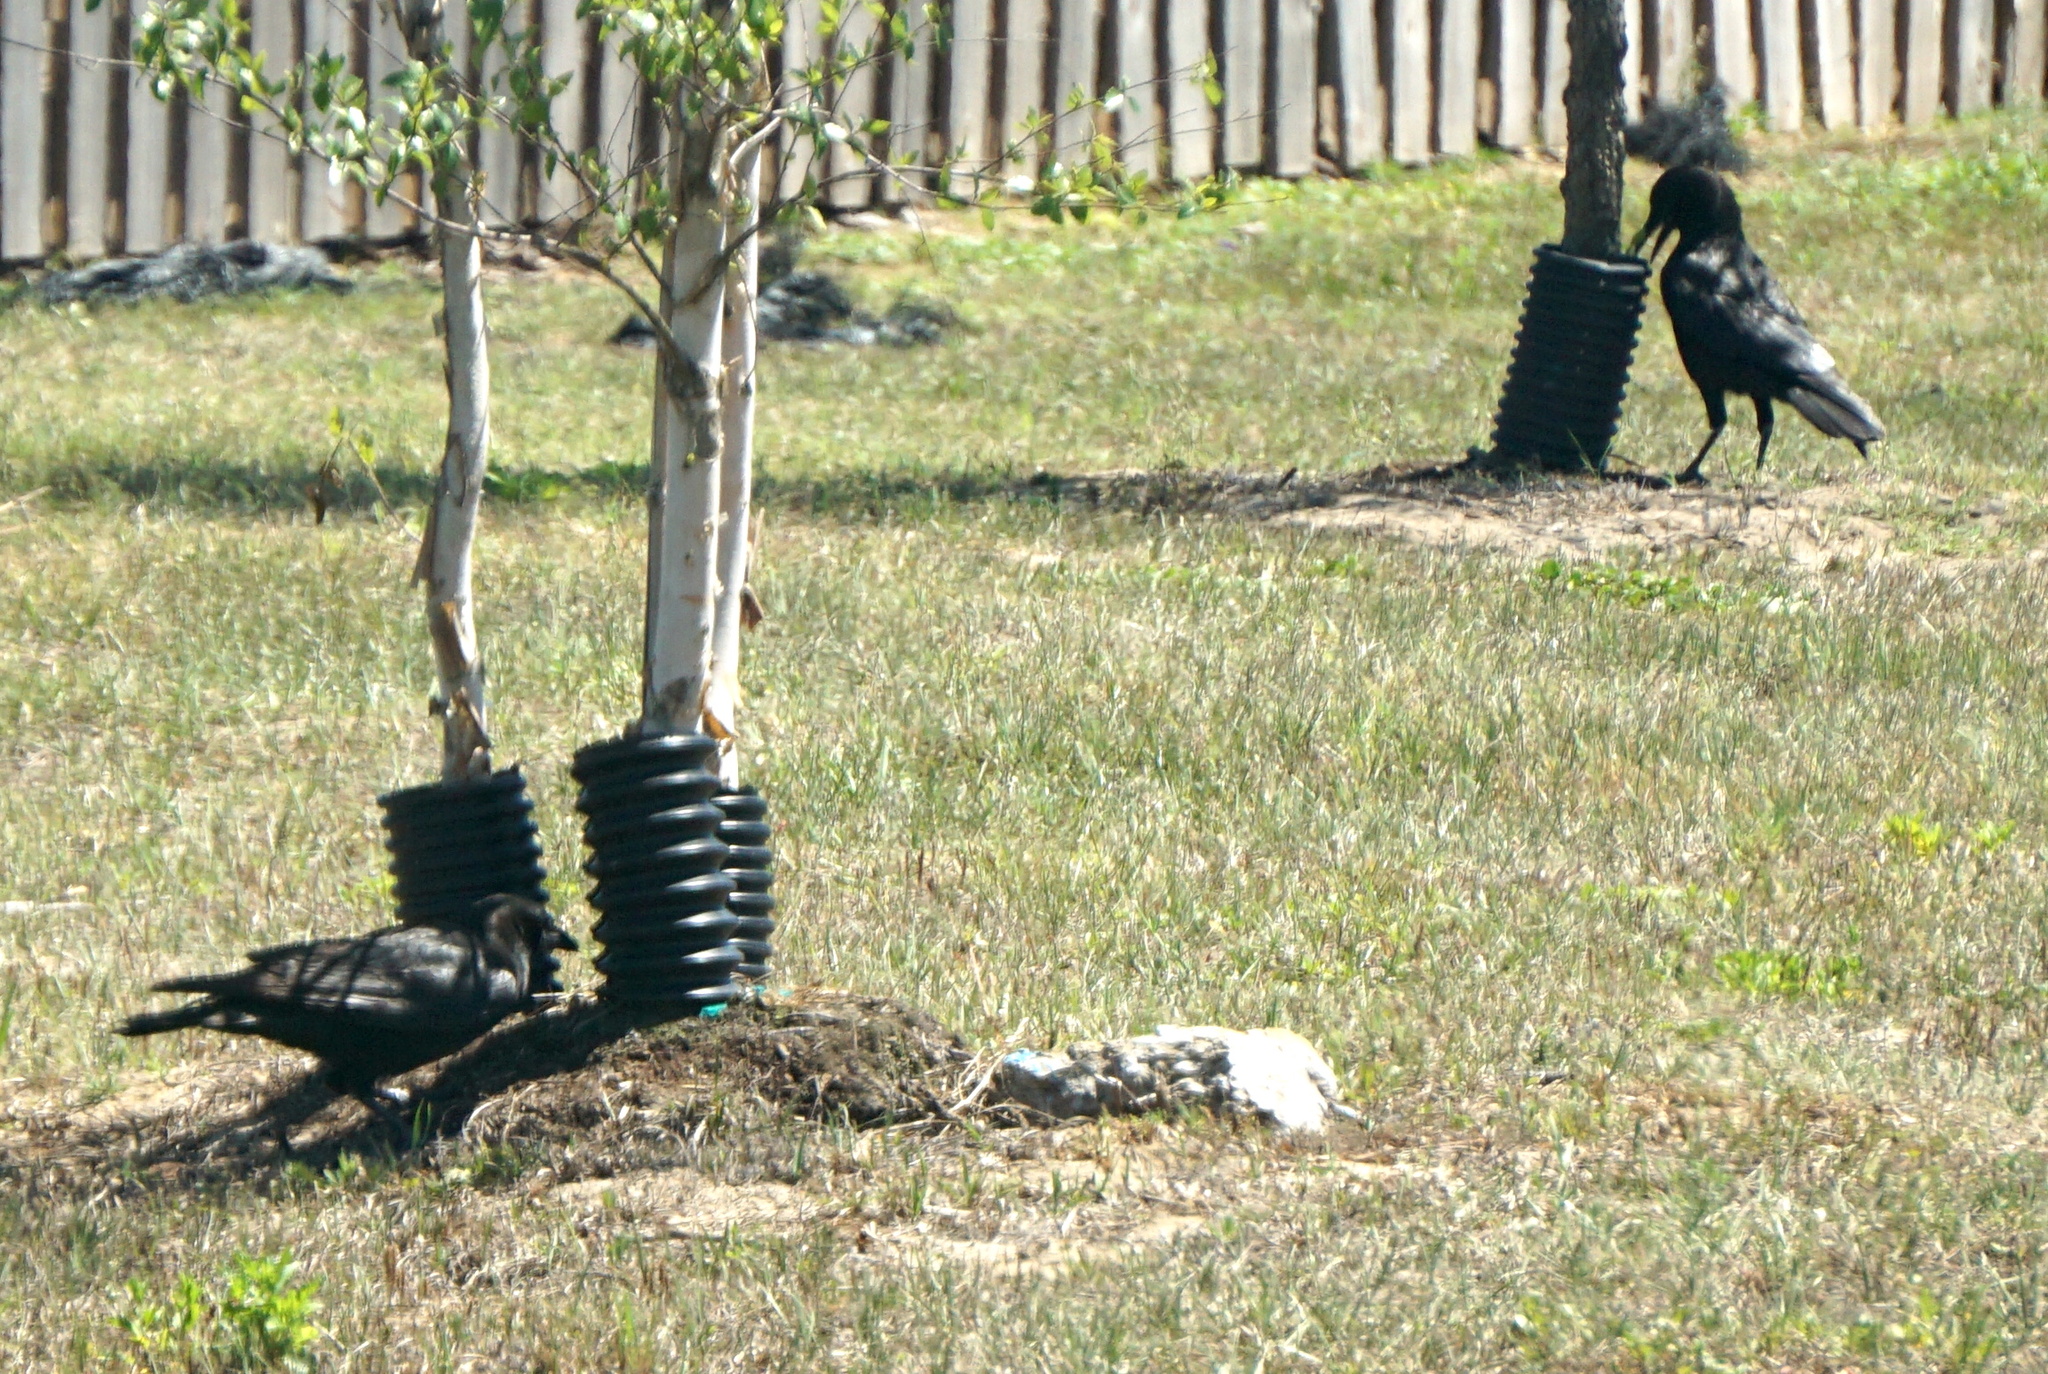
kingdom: Animalia
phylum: Chordata
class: Aves
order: Passeriformes
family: Corvidae
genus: Corvus
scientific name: Corvus
